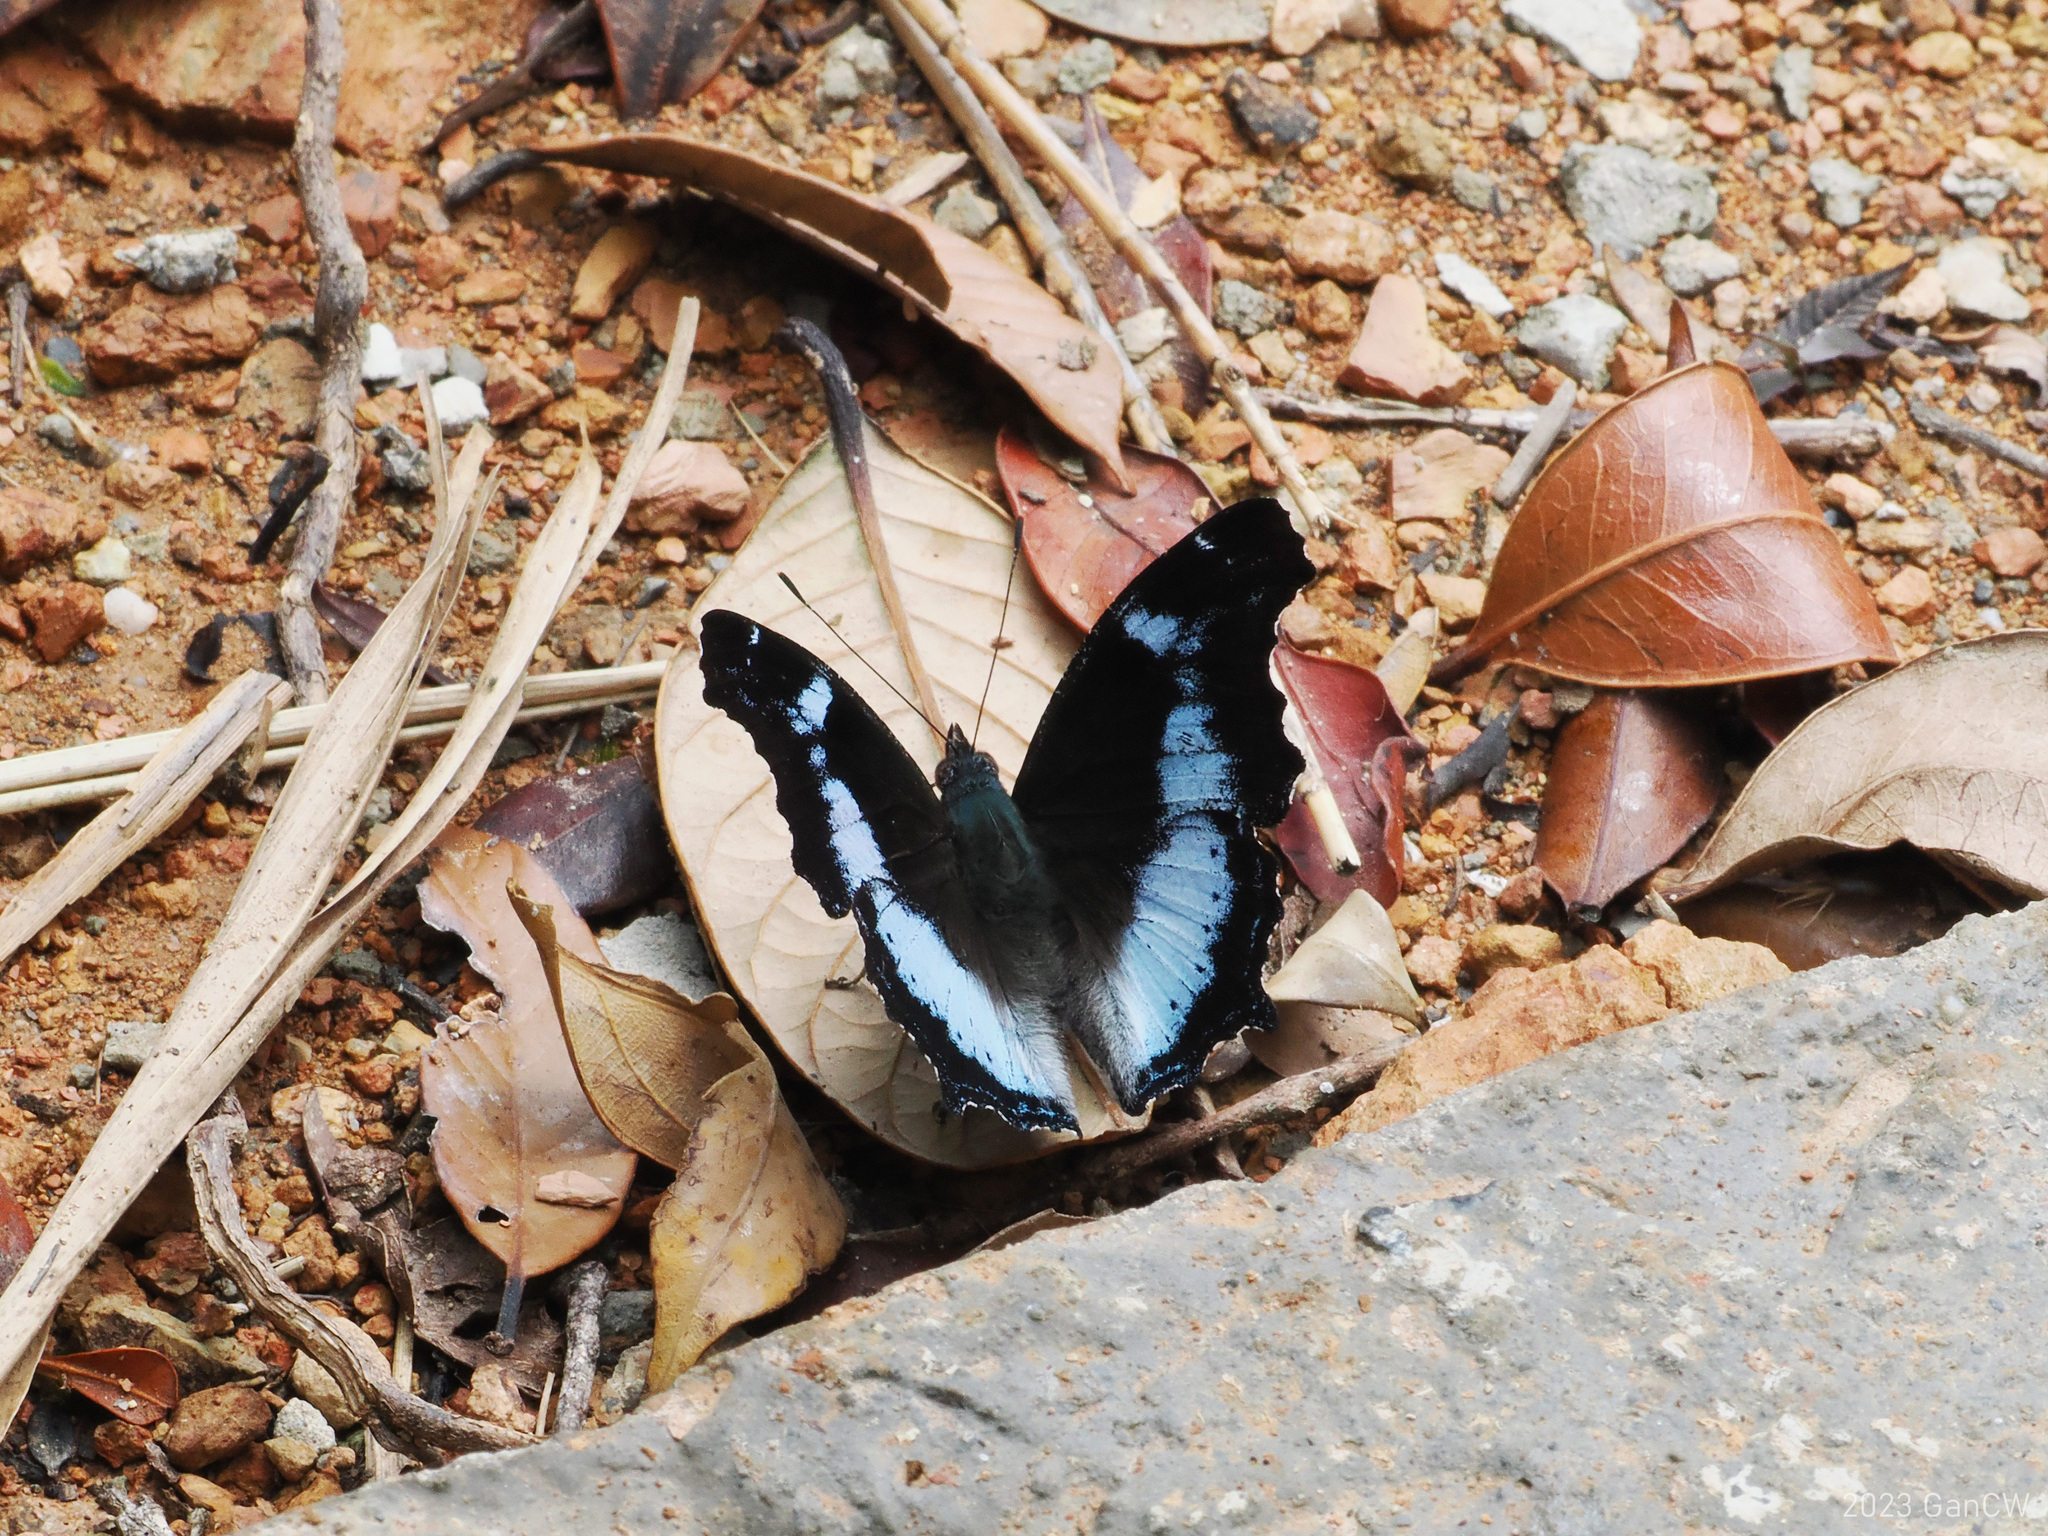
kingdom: Animalia
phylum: Arthropoda
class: Insecta
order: Lepidoptera
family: Nymphalidae
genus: Vanessa
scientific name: Vanessa Kaniska canace
